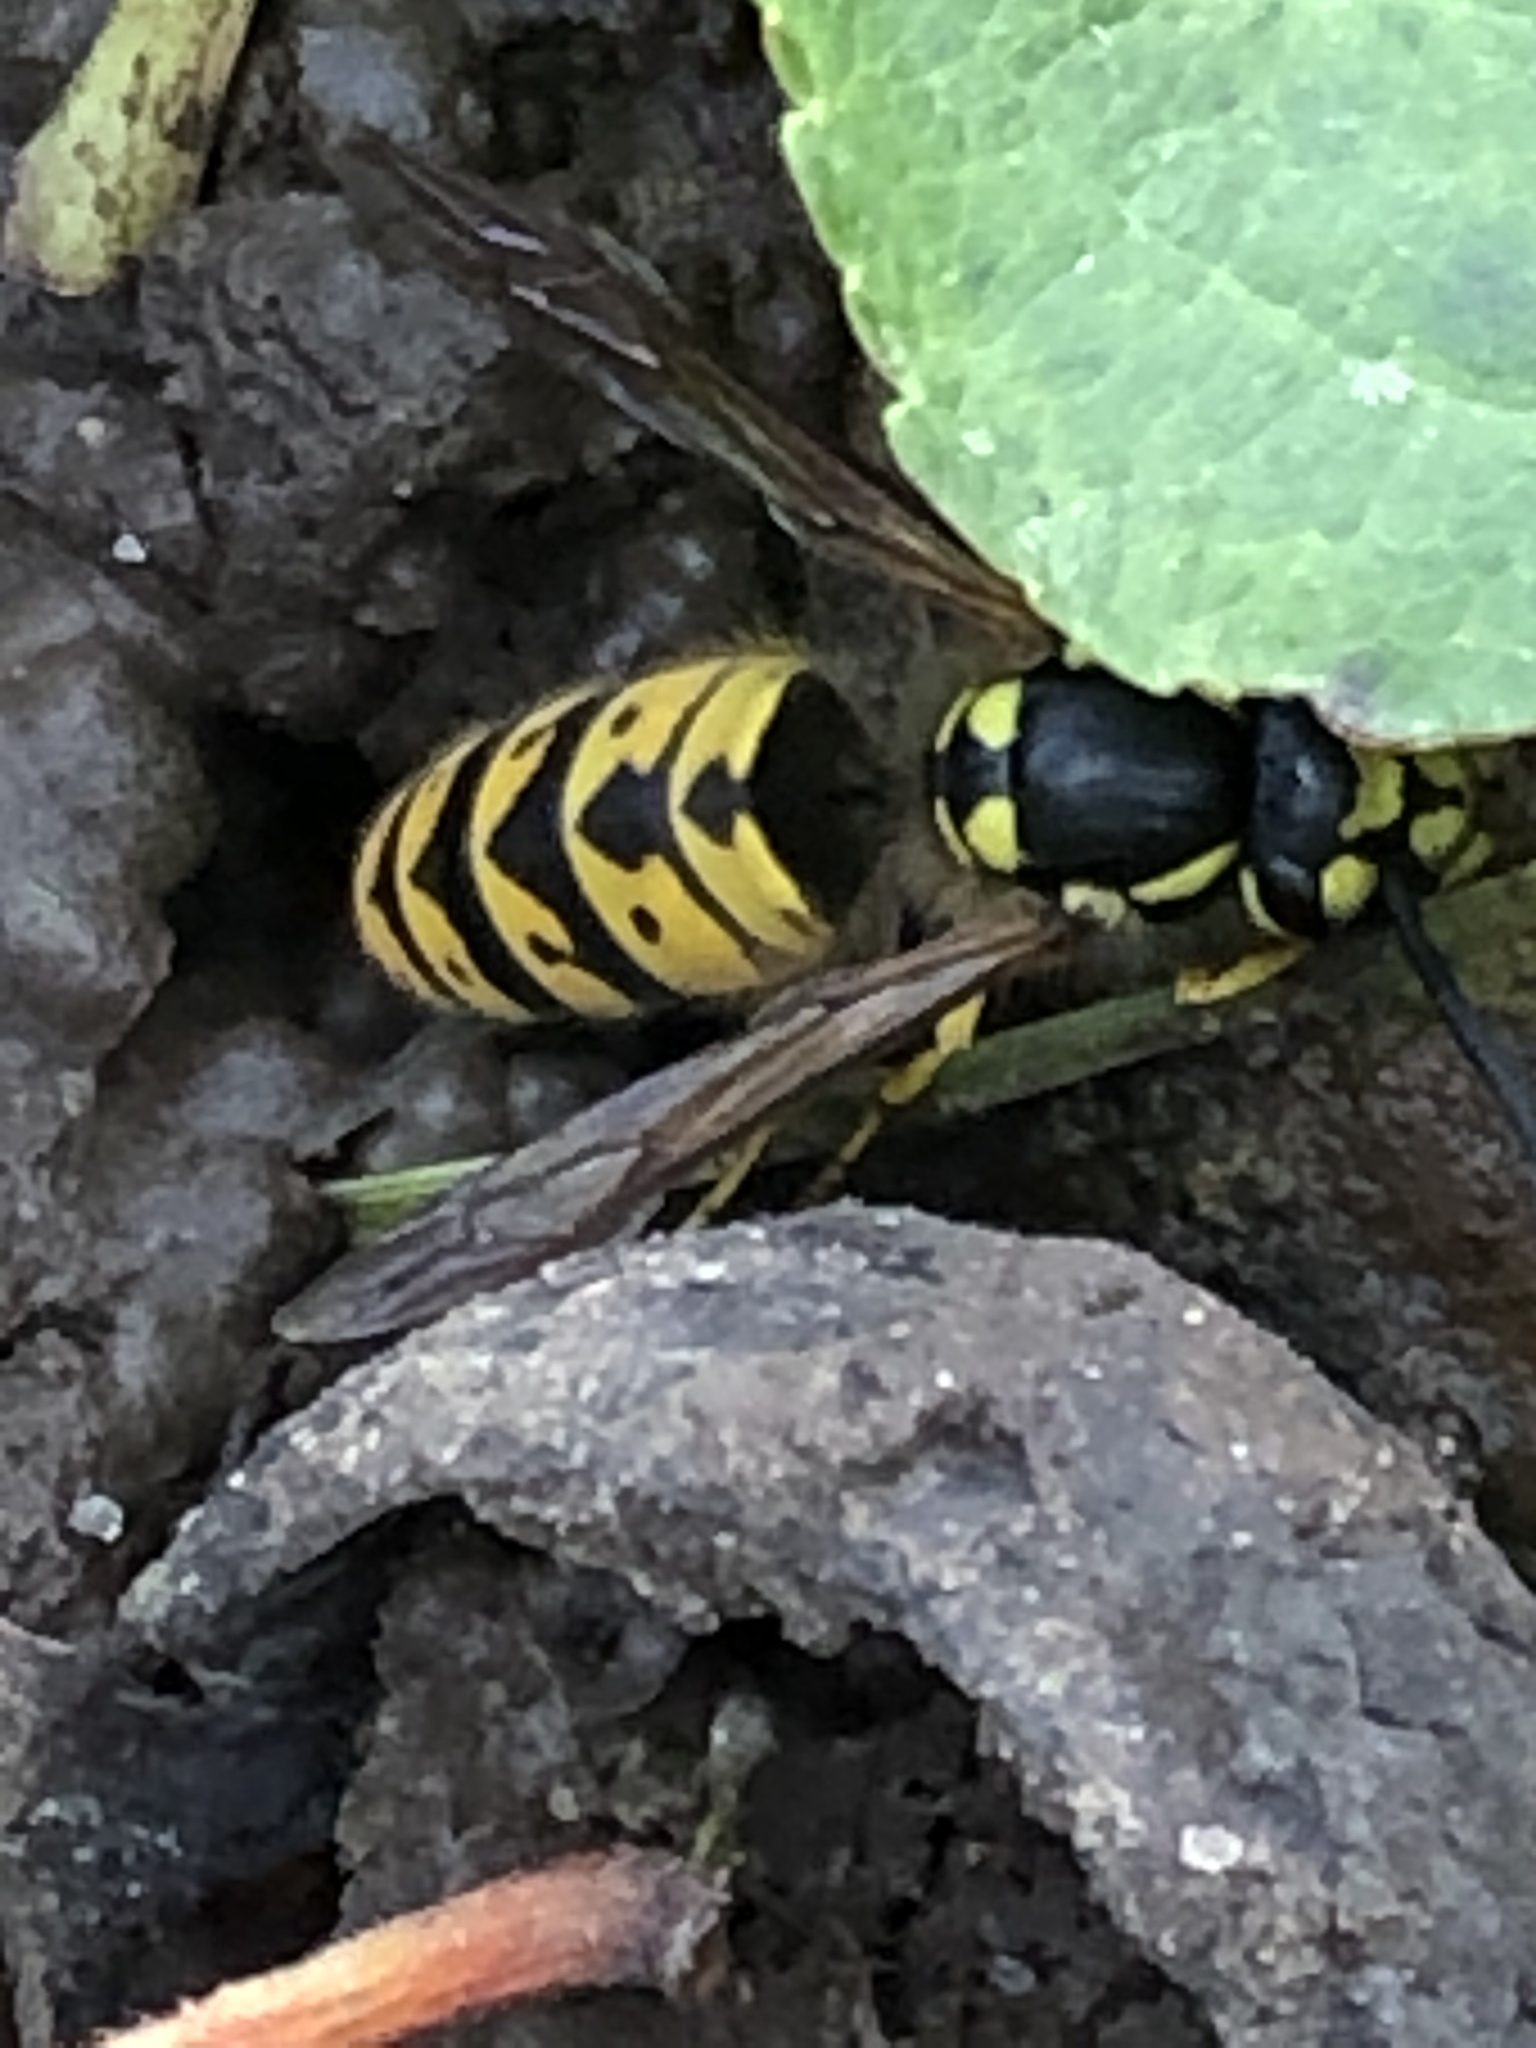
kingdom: Animalia
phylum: Arthropoda
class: Insecta
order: Hymenoptera
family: Vespidae
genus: Vespula
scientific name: Vespula germanica
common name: German wasp
